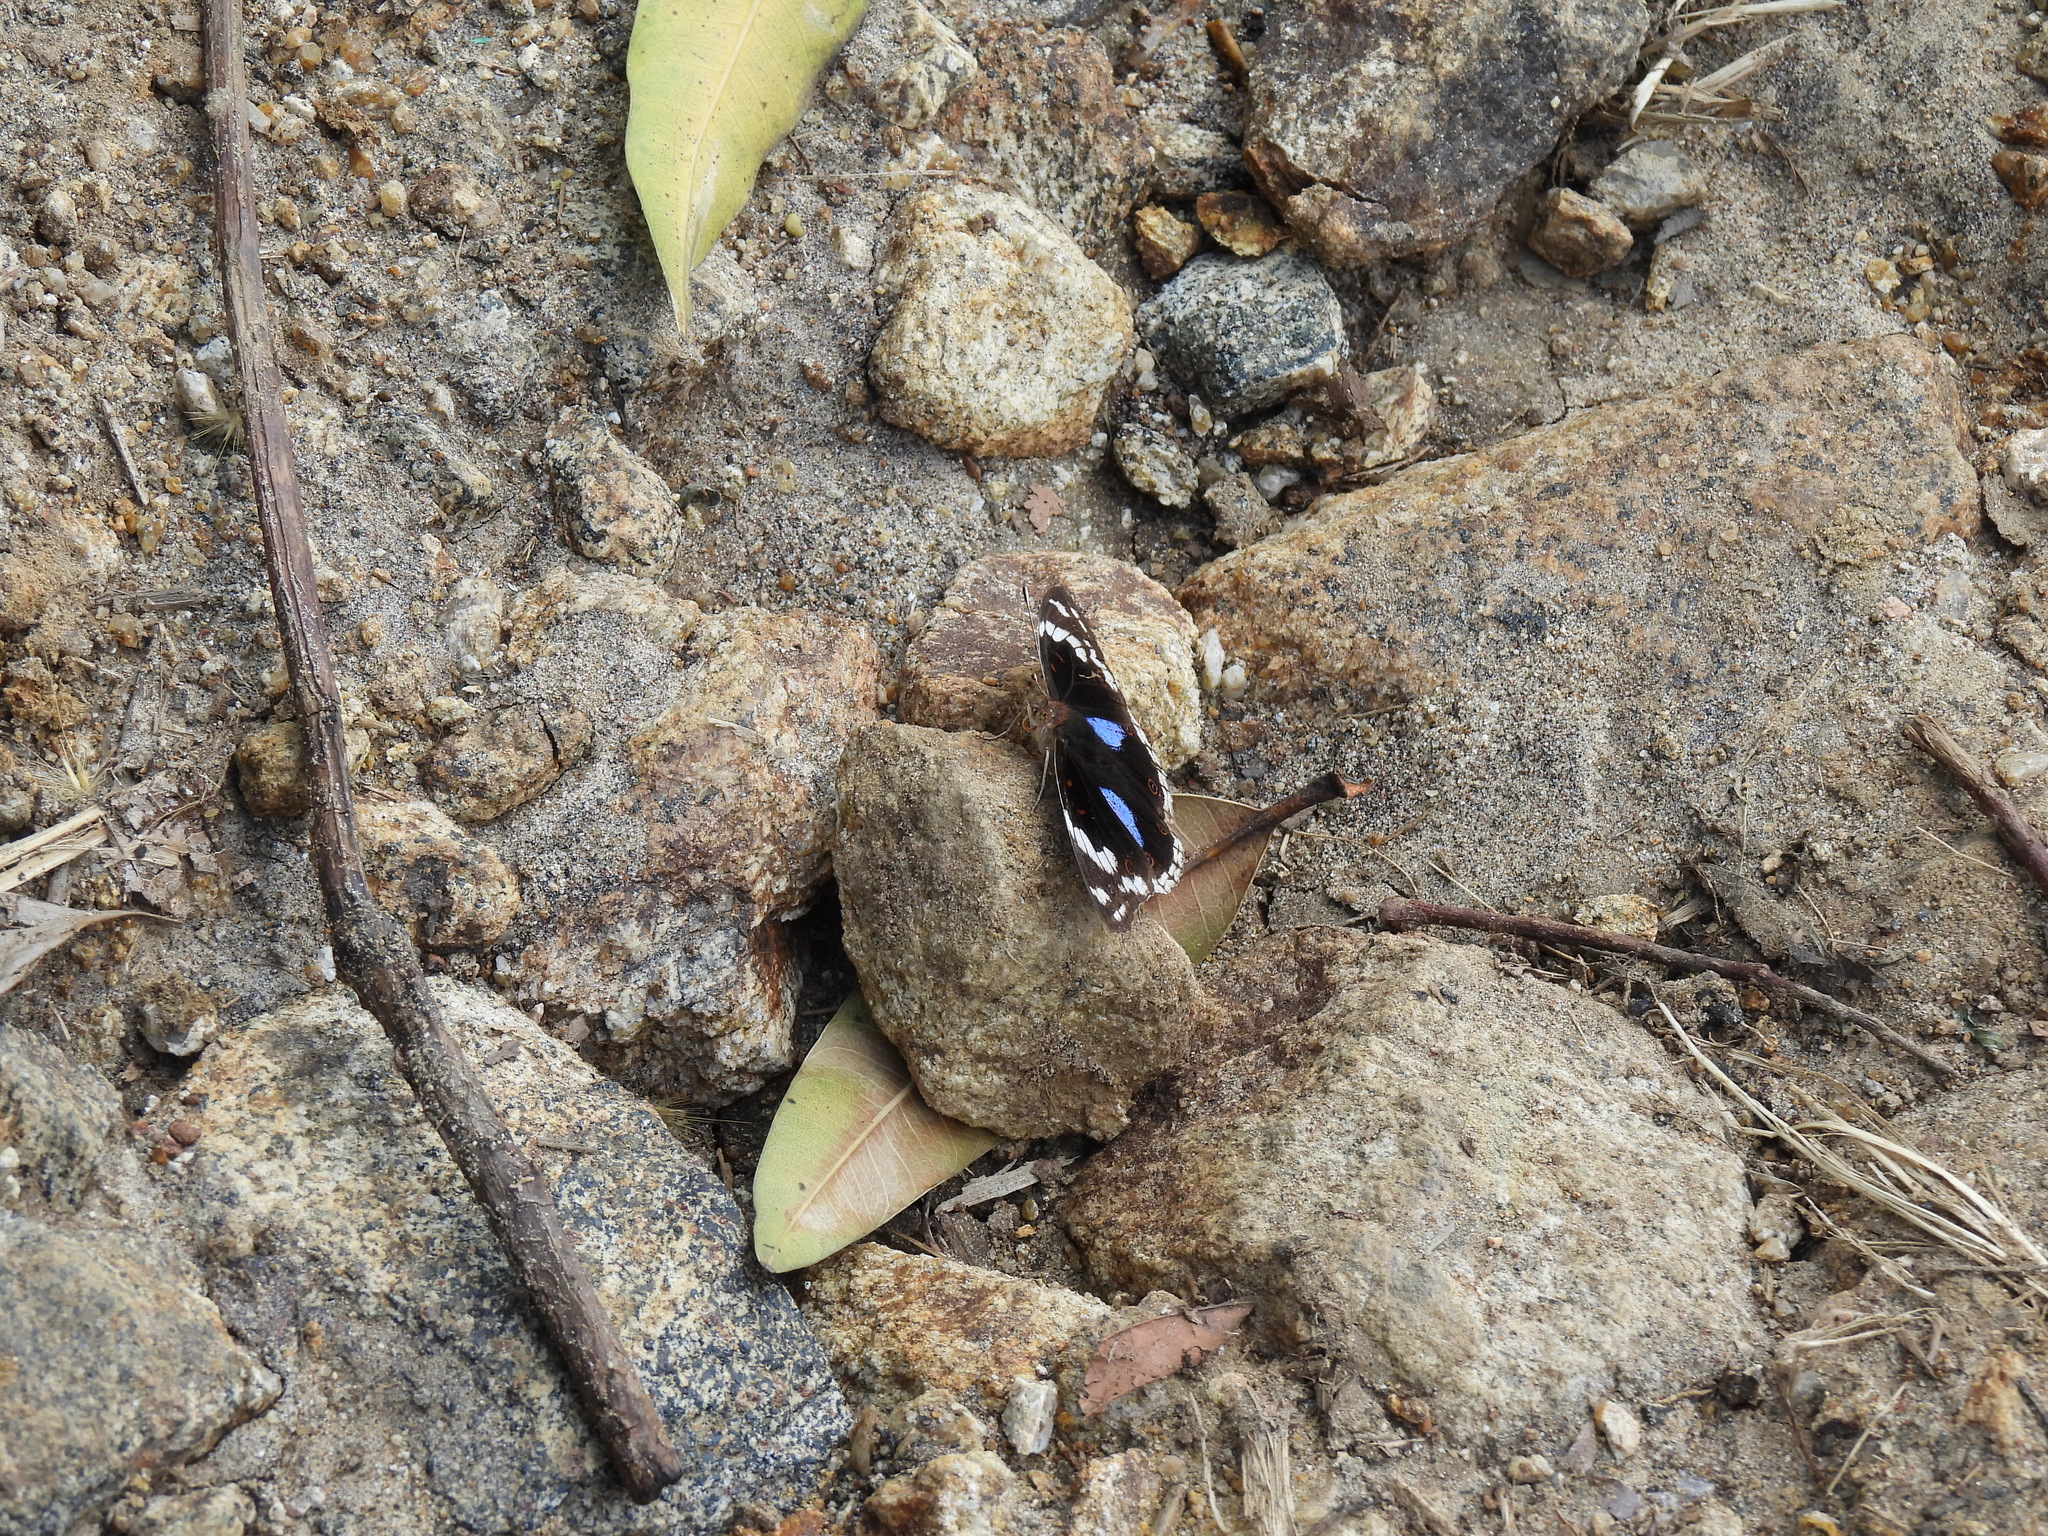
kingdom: Animalia
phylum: Arthropoda
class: Insecta
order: Lepidoptera
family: Nymphalidae
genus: Junonia
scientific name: Junonia oenone
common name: Dark blue pansy
